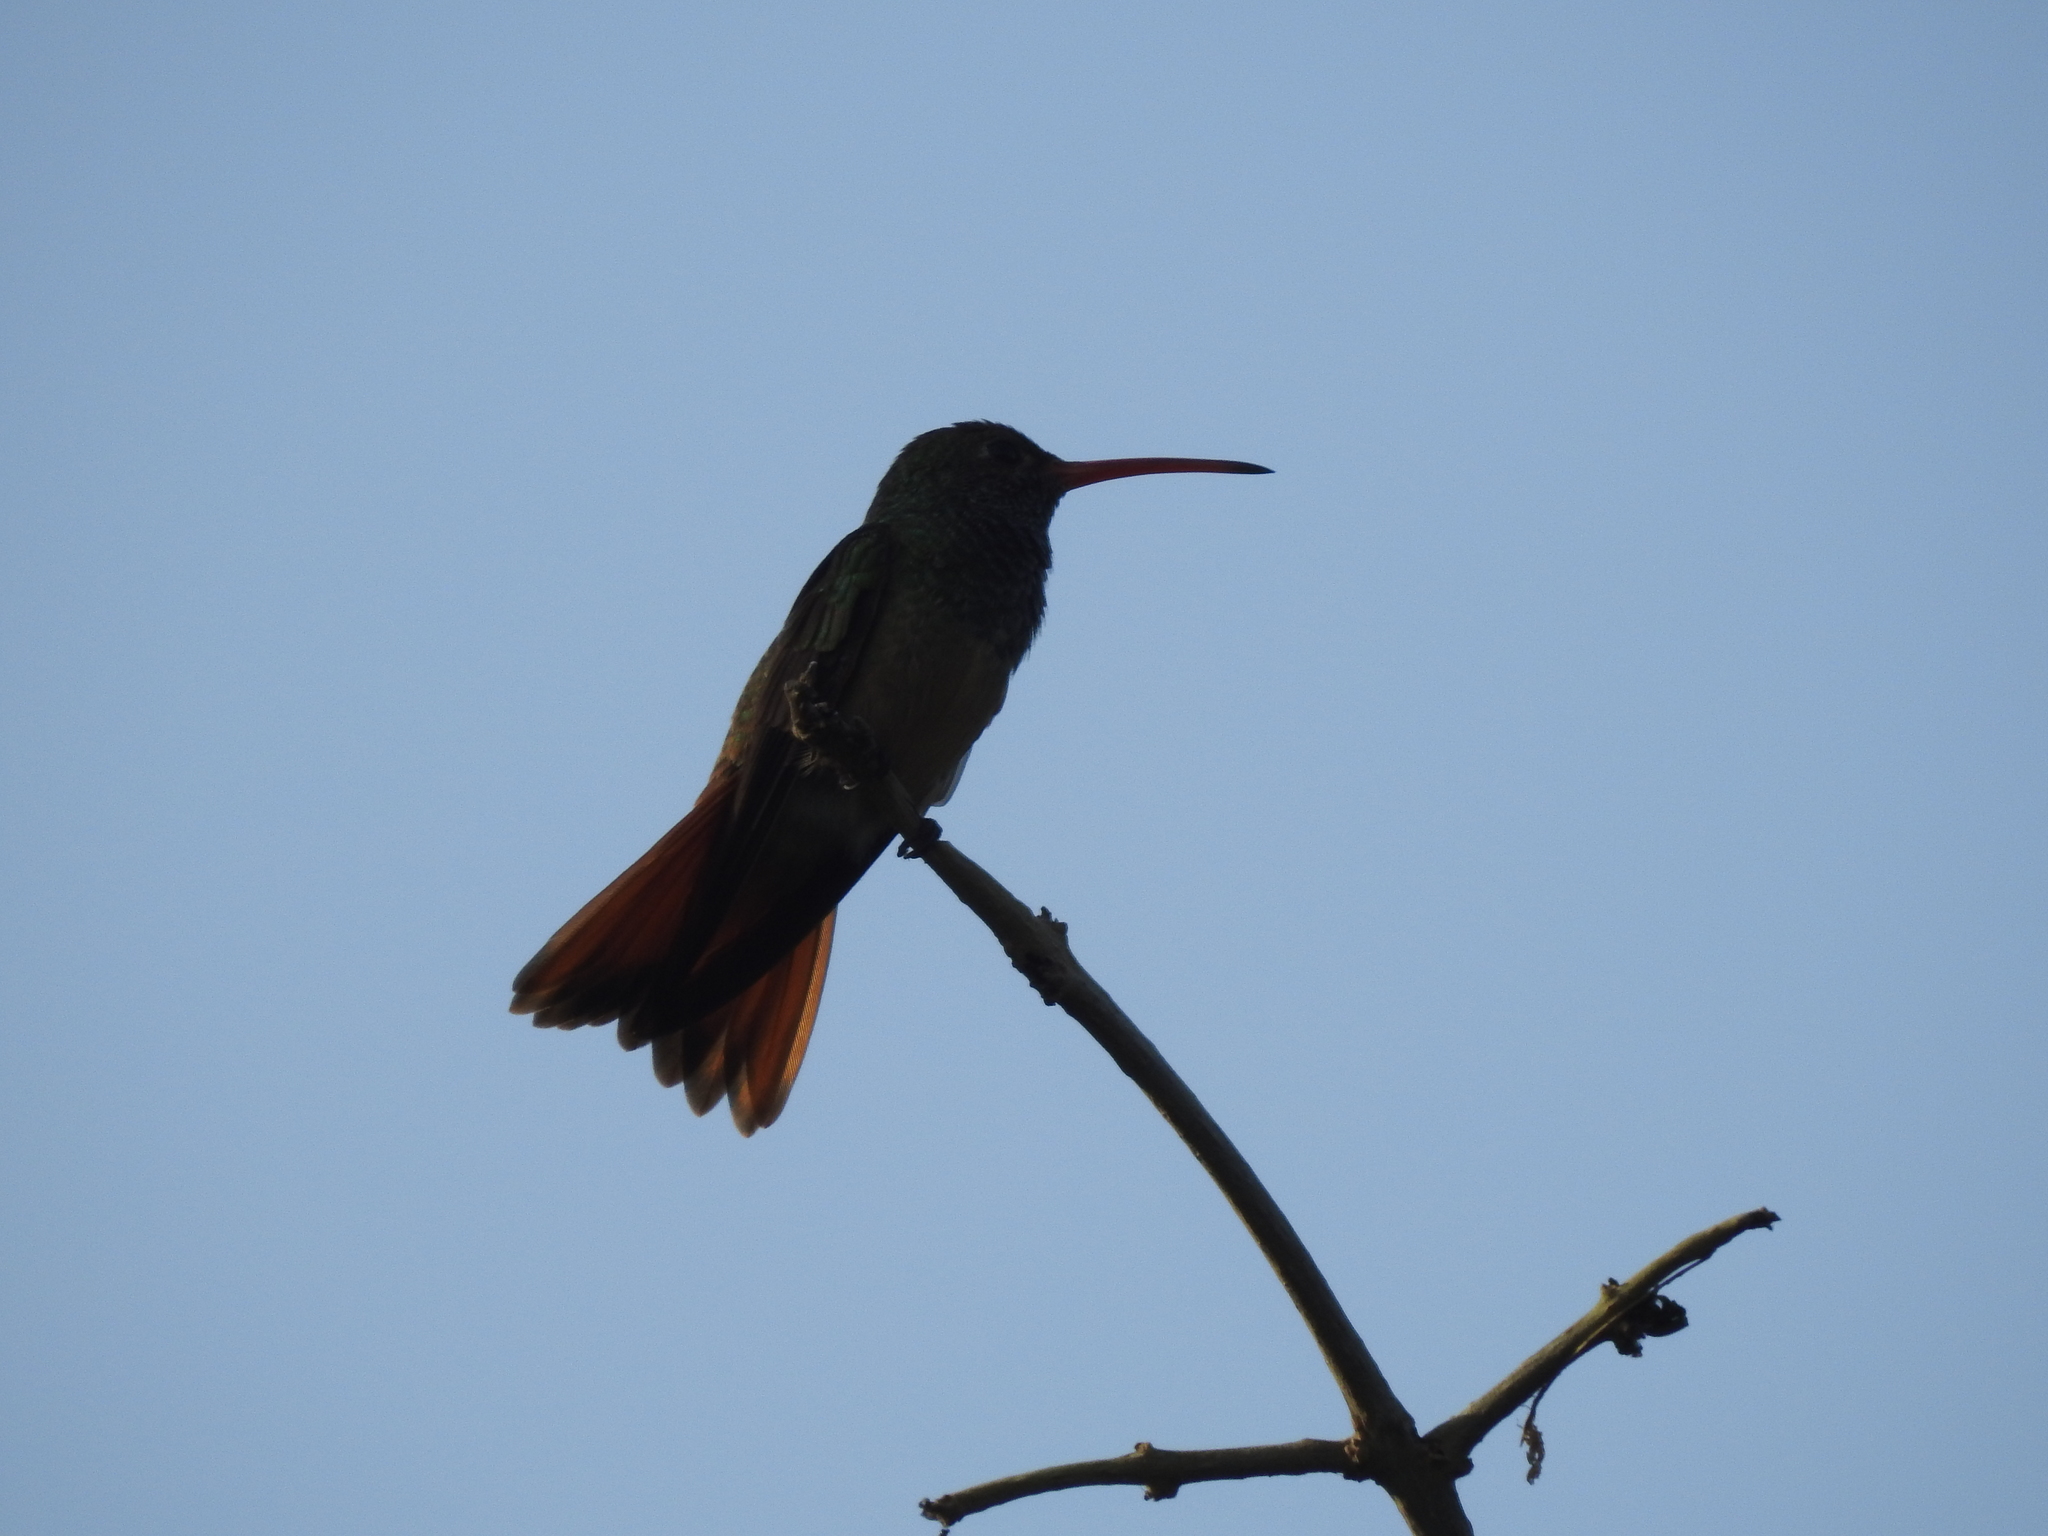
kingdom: Animalia
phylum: Chordata
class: Aves
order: Apodiformes
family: Trochilidae
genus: Amazilia
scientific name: Amazilia yucatanensis
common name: Buff-bellied hummingbird
